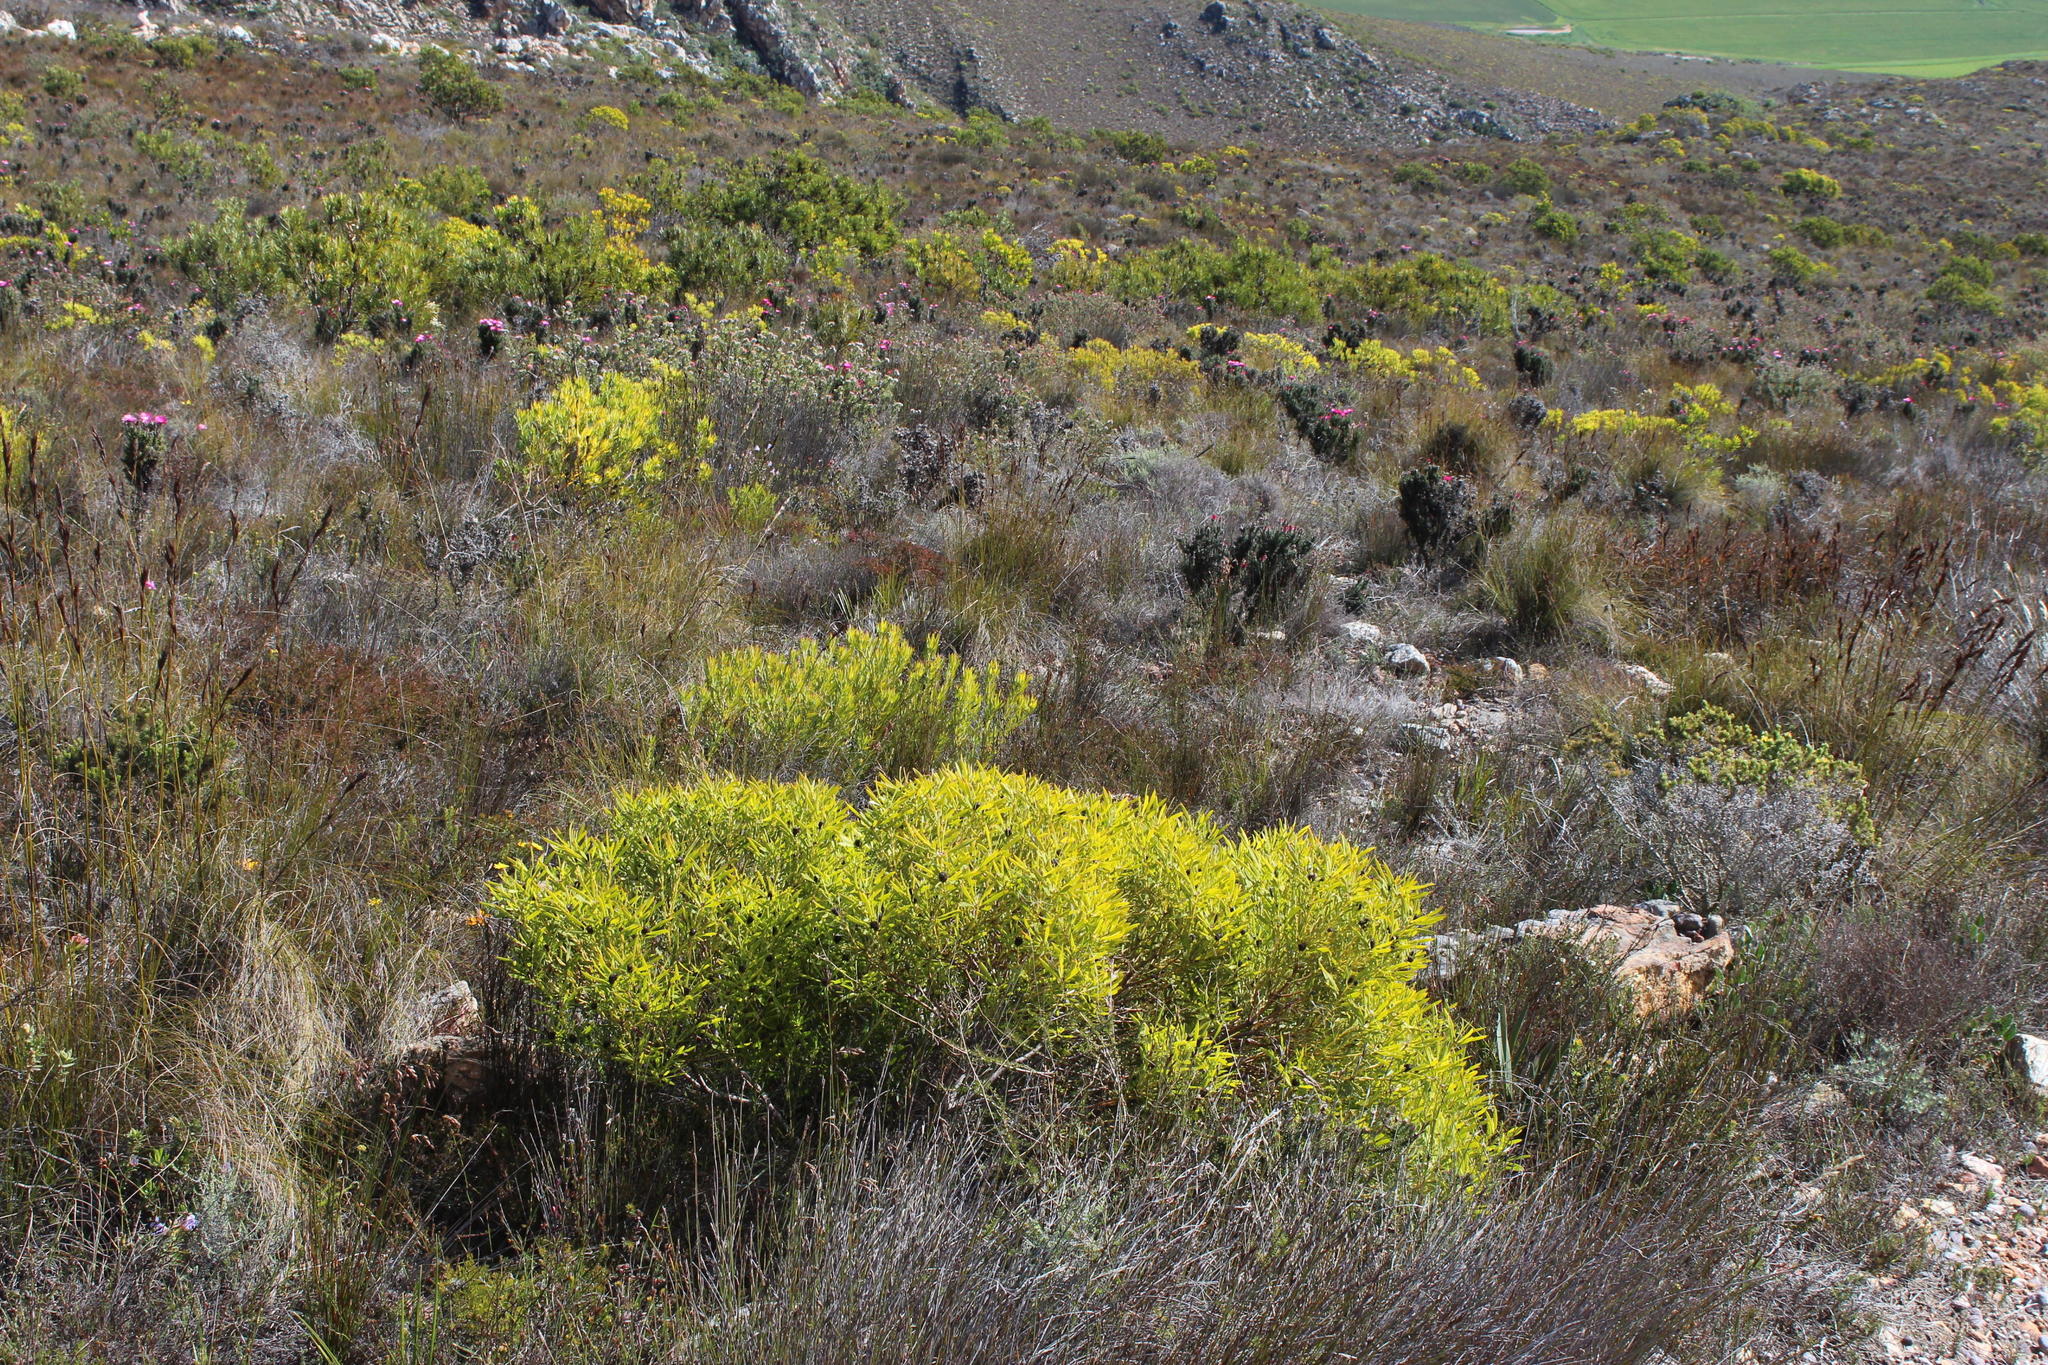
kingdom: Plantae
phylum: Tracheophyta
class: Magnoliopsida
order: Proteales
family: Proteaceae
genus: Leucadendron
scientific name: Leucadendron salignum
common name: Common sunshine conebush
